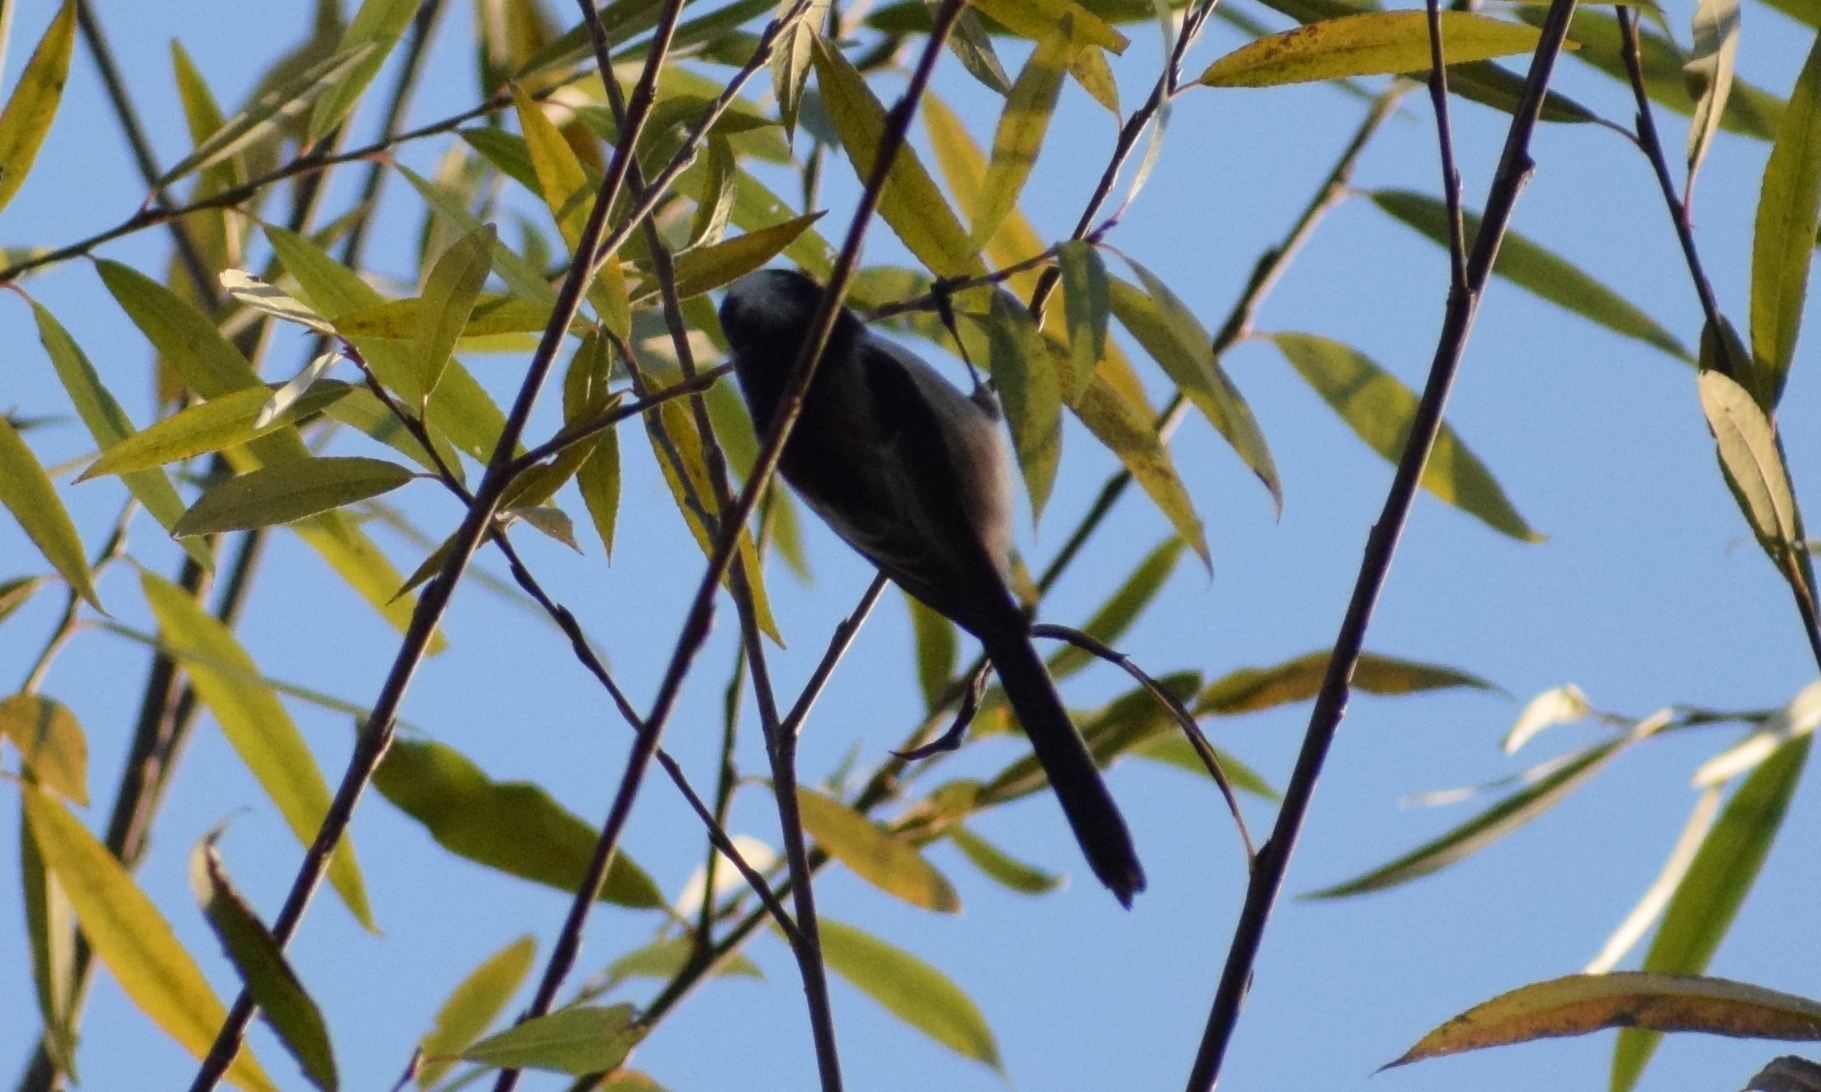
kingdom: Animalia
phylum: Chordata
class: Aves
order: Passeriformes
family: Aegithalidae
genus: Aegithalos
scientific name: Aegithalos caudatus
